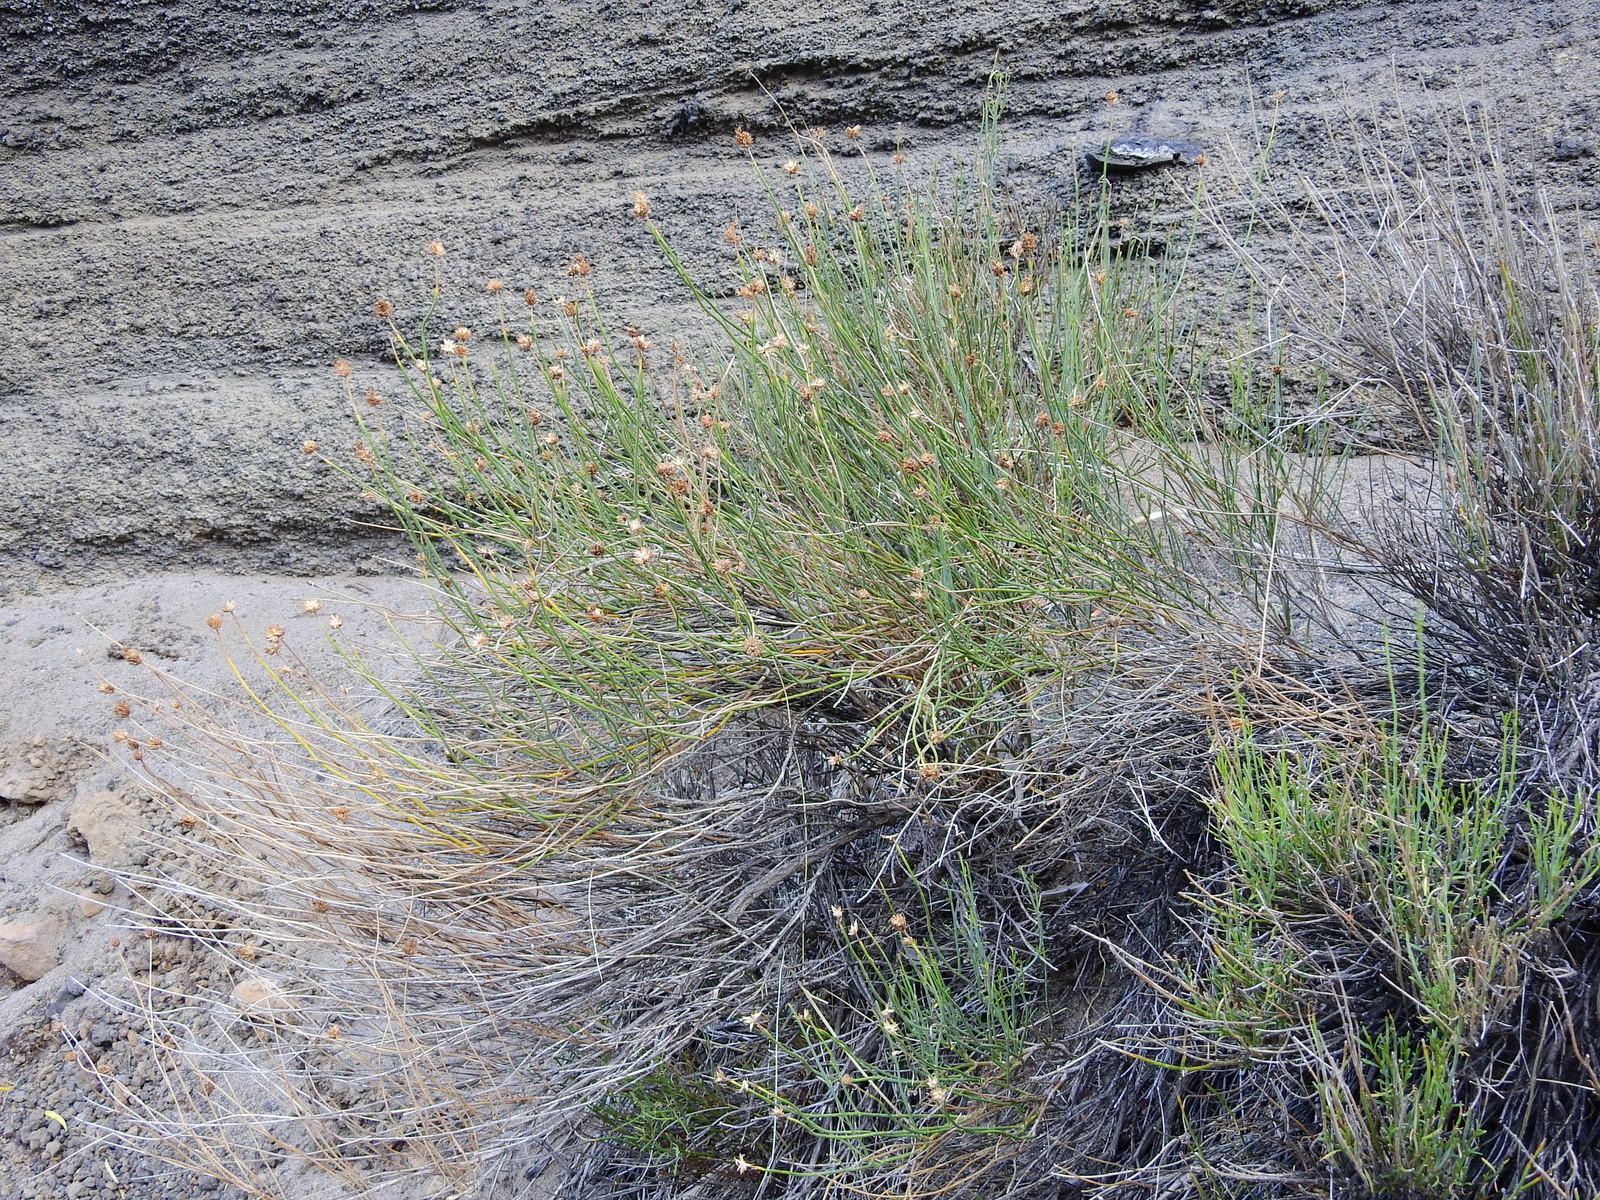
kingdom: Plantae
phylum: Tracheophyta
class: Magnoliopsida
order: Lamiales
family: Verbenaceae
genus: Junellia
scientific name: Junellia spathulata
